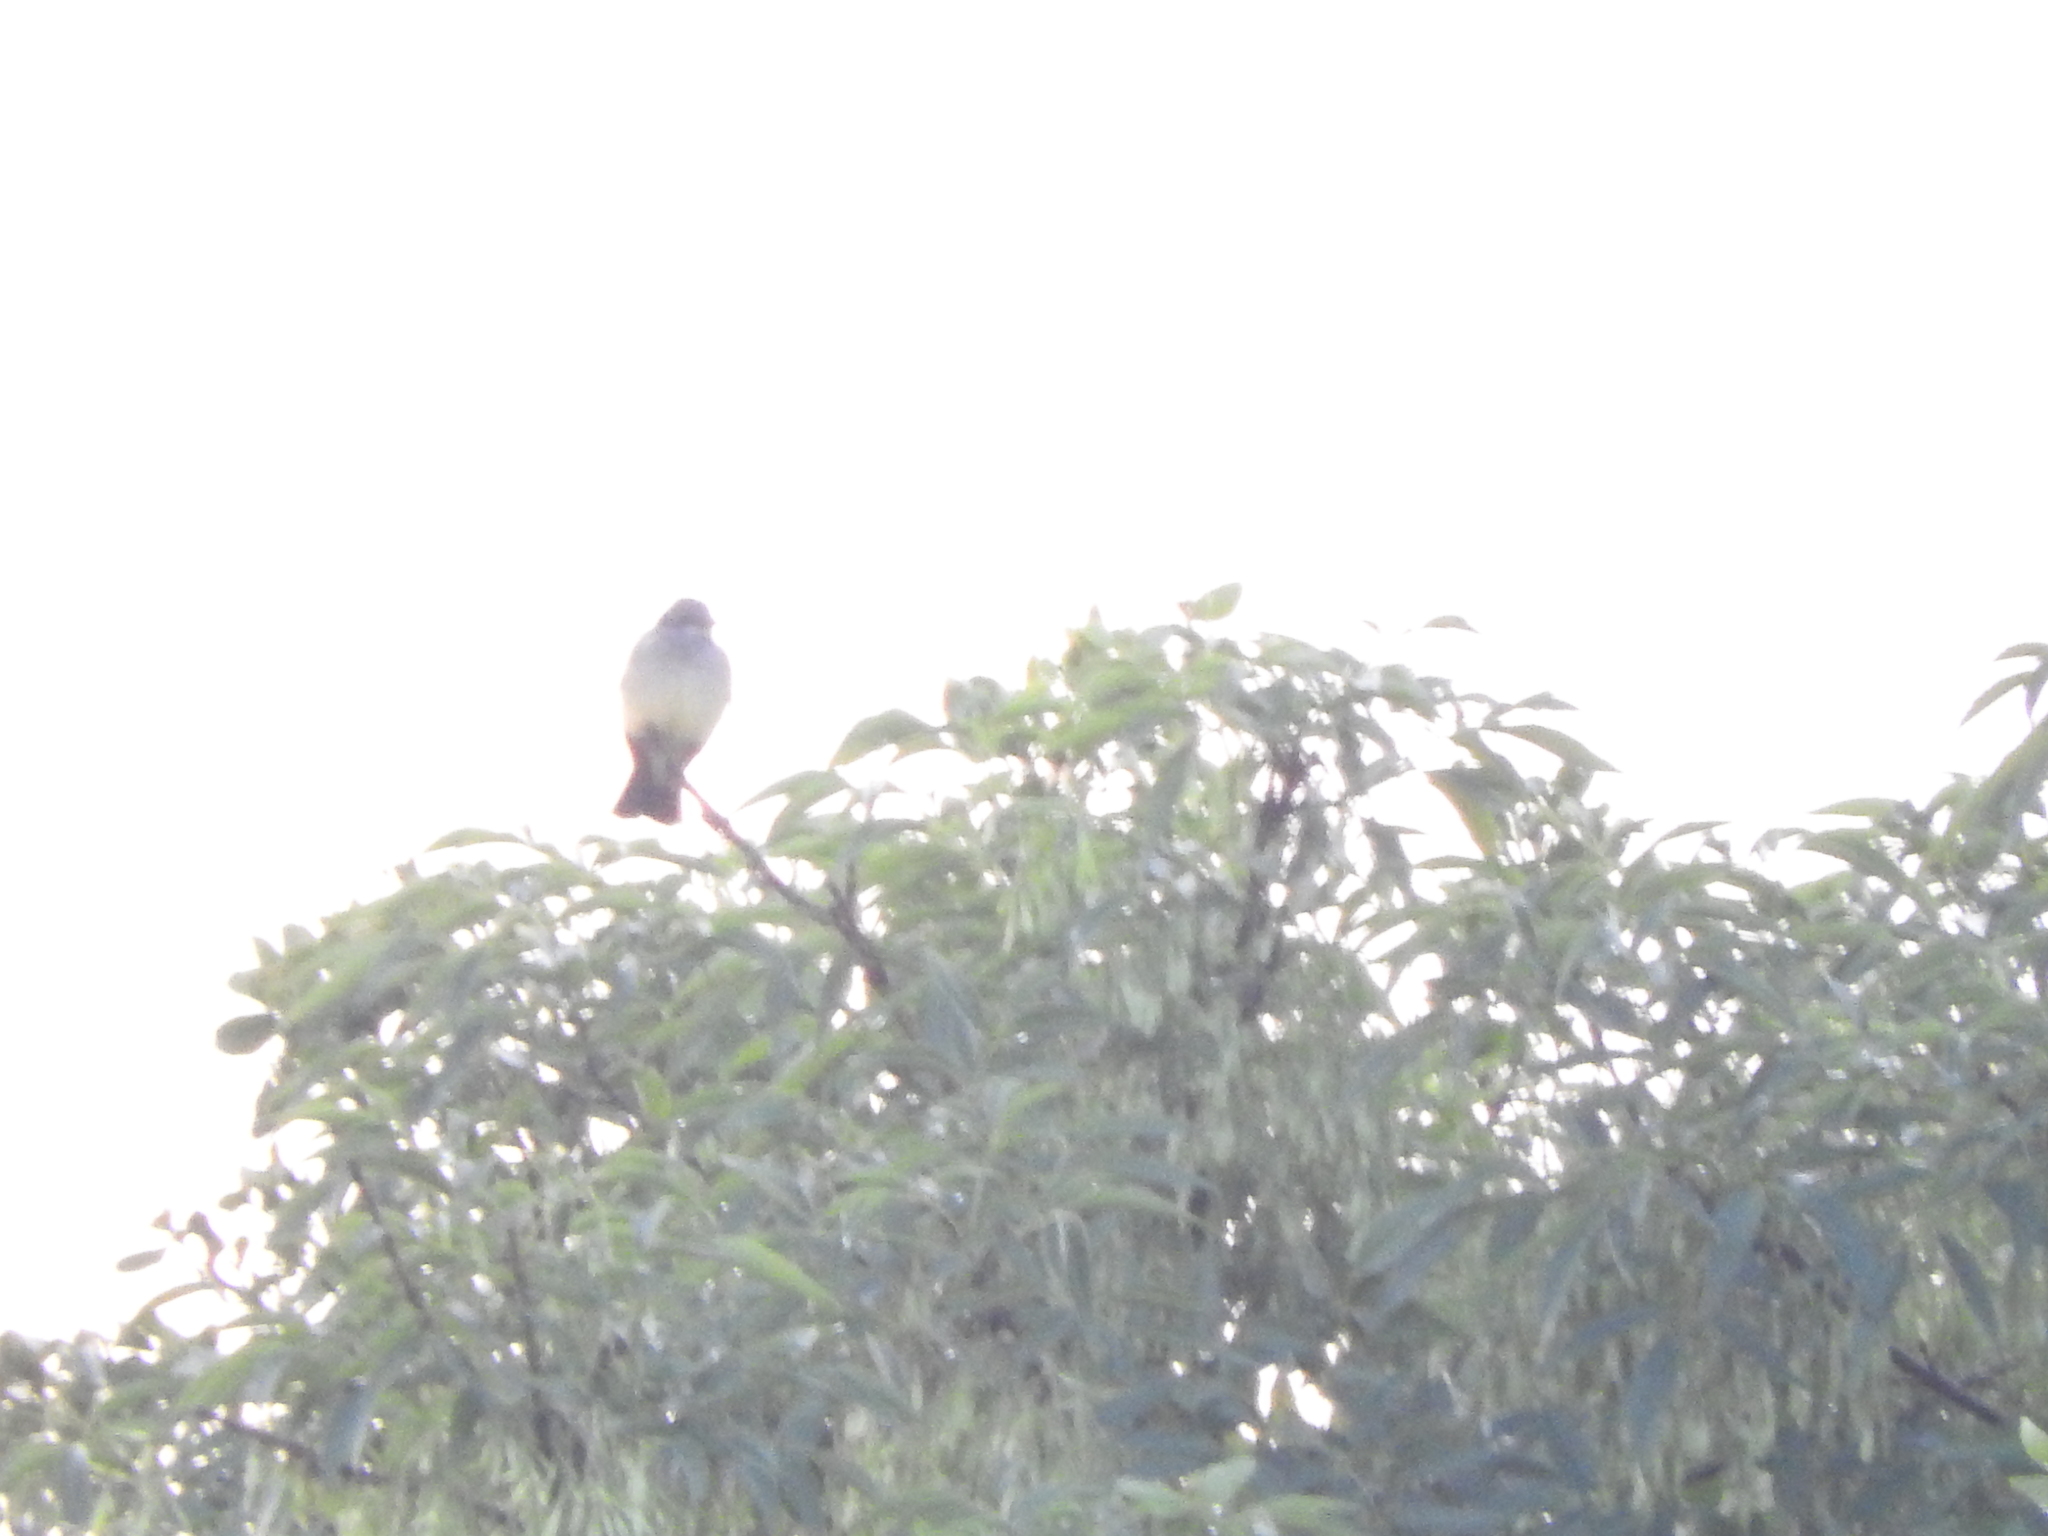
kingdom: Animalia
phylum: Chordata
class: Aves
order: Passeriformes
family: Tyrannidae
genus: Tyrannus
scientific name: Tyrannus vociferans
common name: Cassin's kingbird
